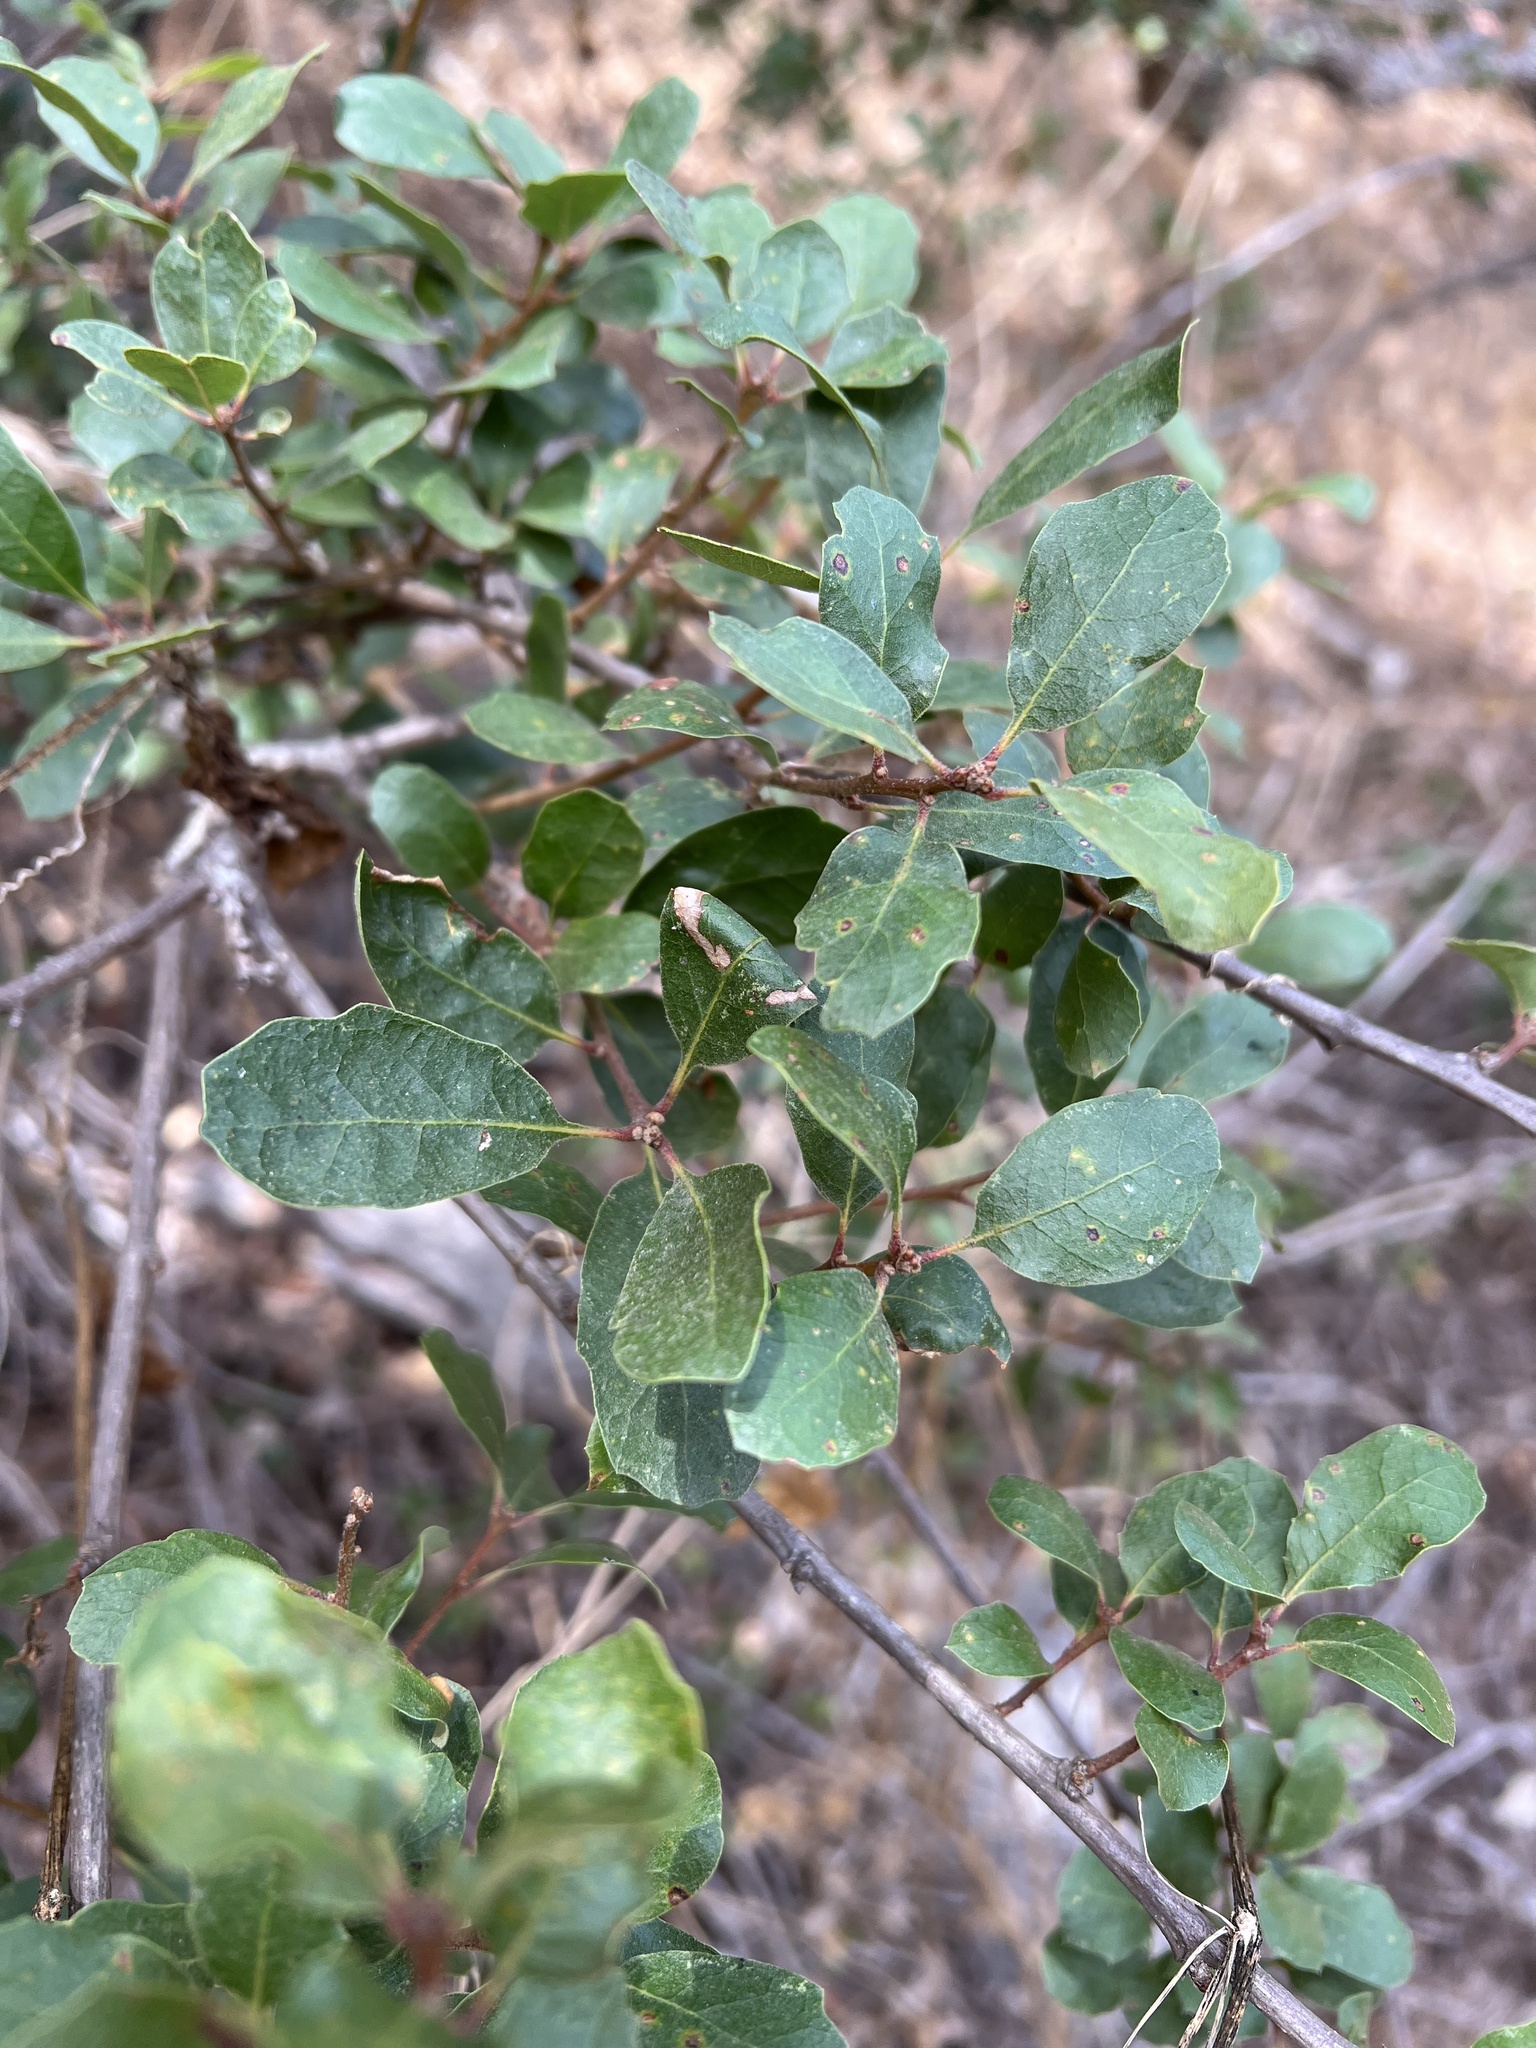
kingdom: Plantae
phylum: Tracheophyta
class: Magnoliopsida
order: Fagales
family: Fagaceae
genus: Quercus
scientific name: Quercus pacifica
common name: Channel island scrub oak
